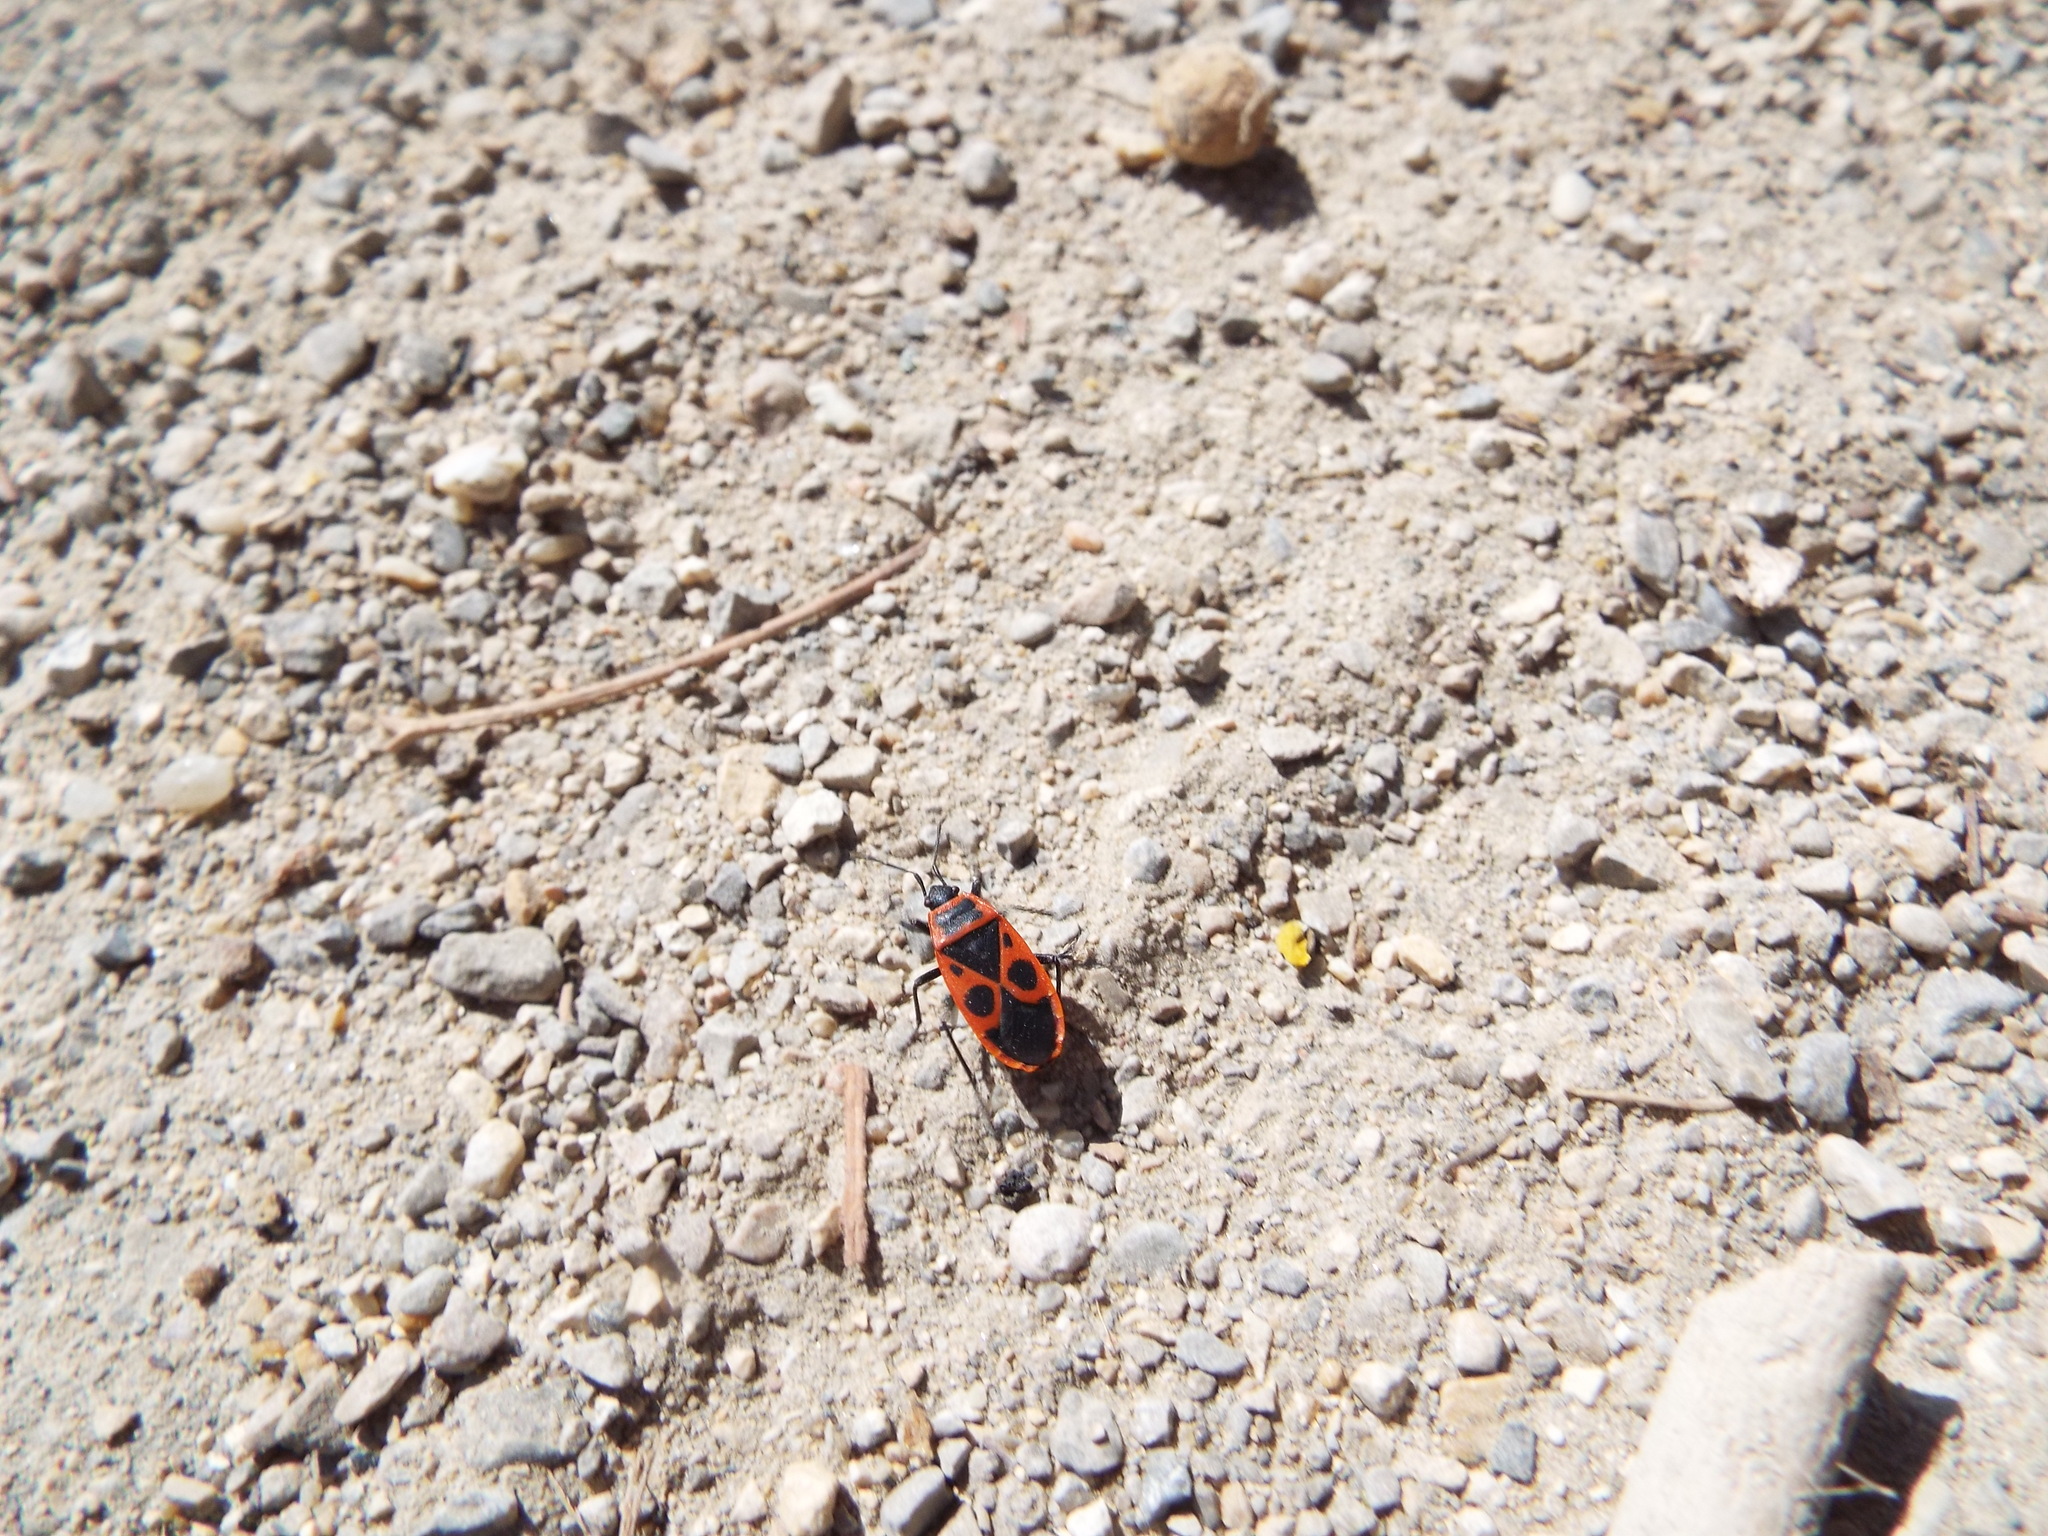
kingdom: Animalia
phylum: Arthropoda
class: Insecta
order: Hemiptera
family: Pyrrhocoridae
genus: Pyrrhocoris
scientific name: Pyrrhocoris apterus
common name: Firebug
